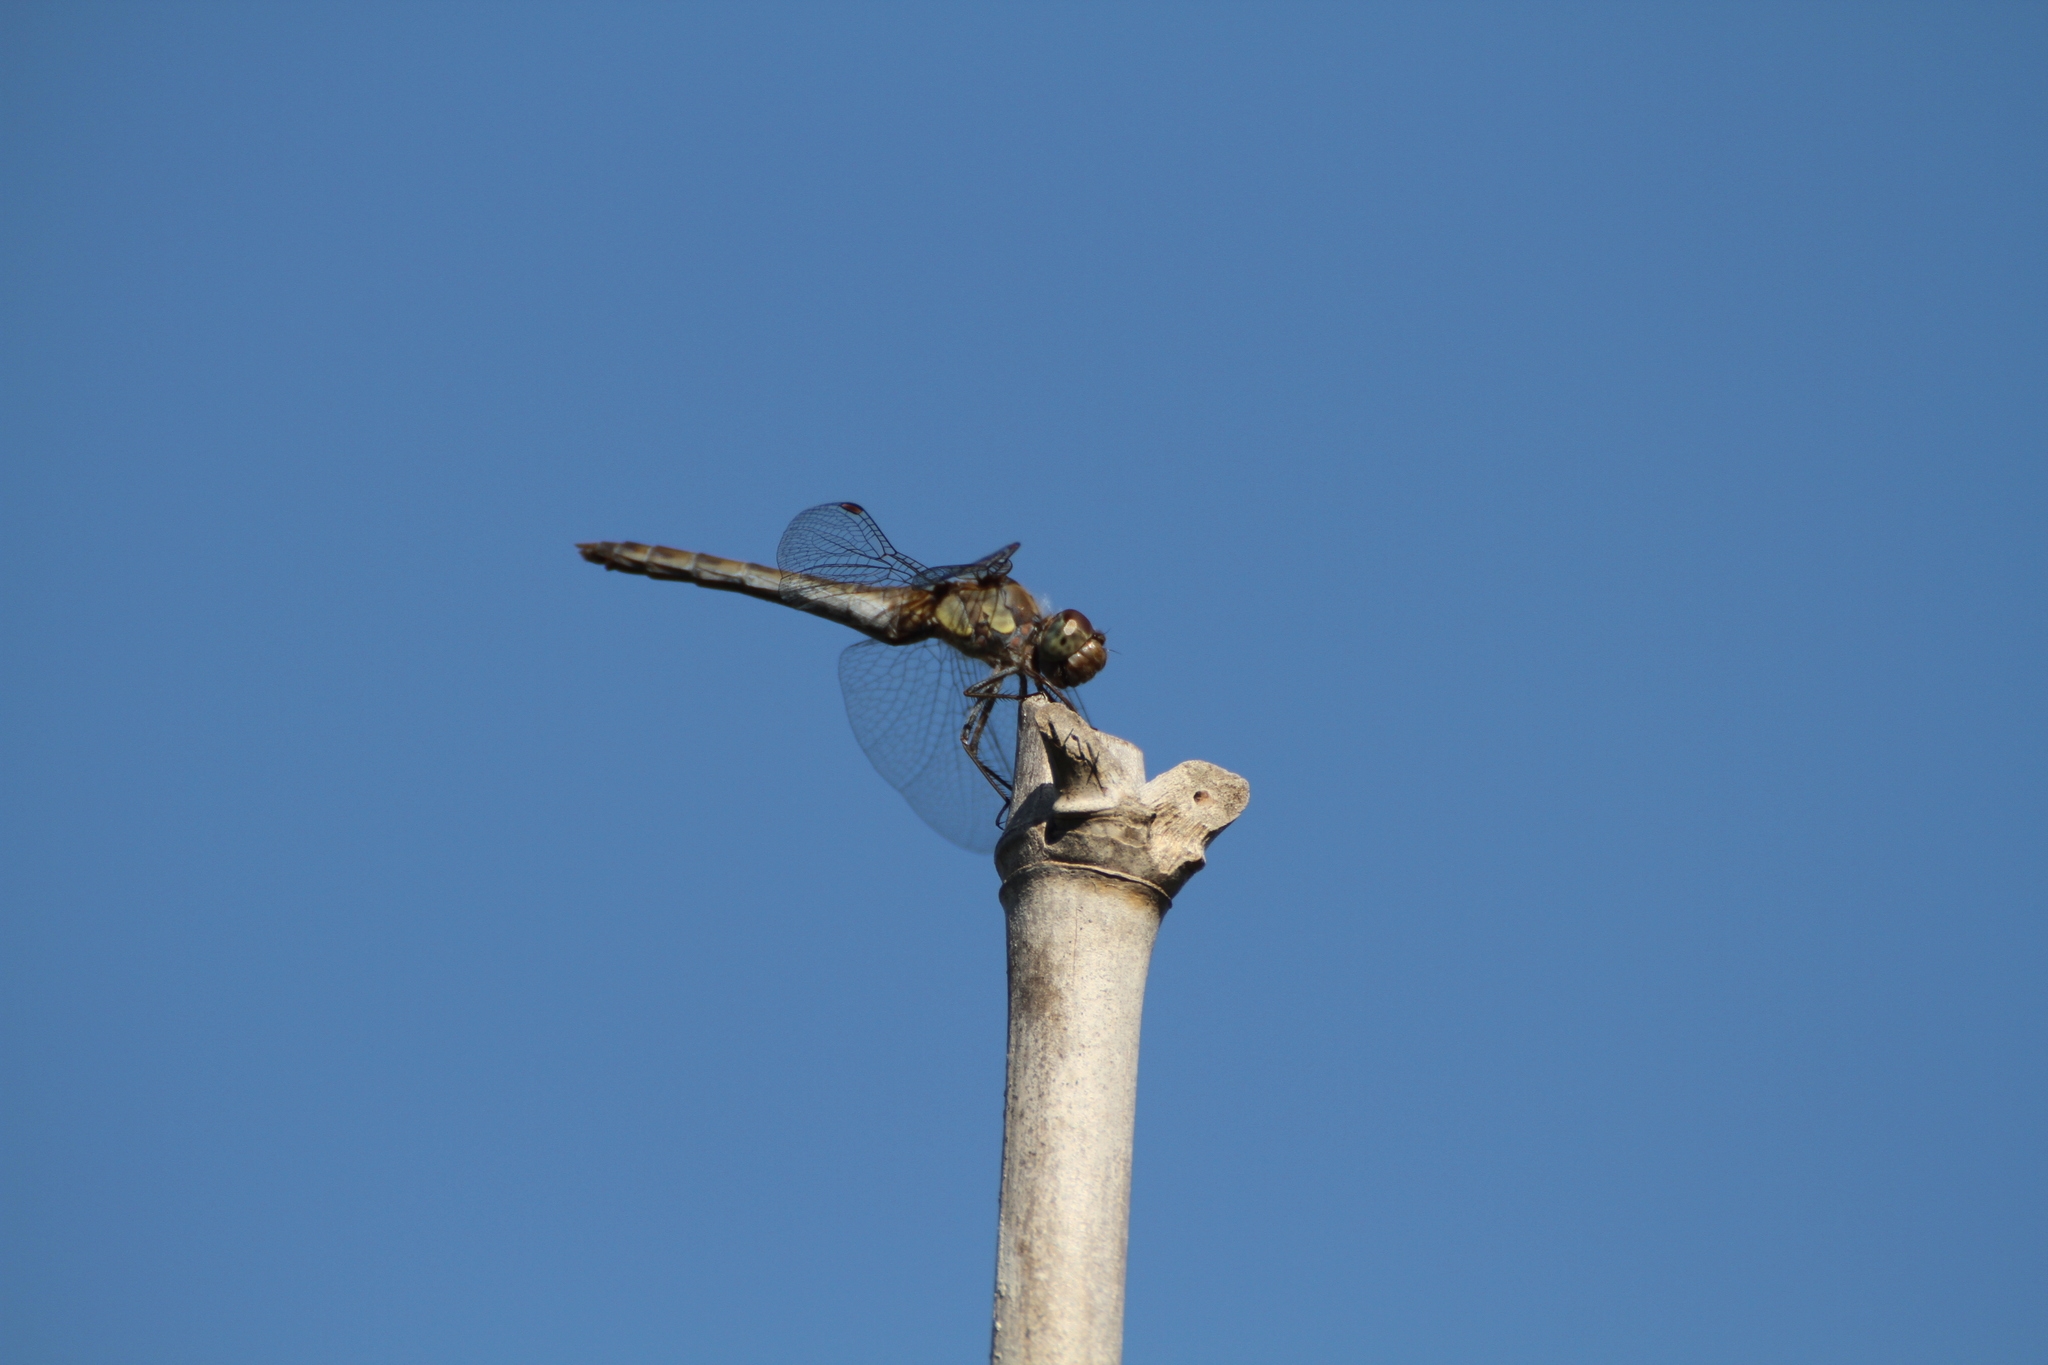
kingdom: Animalia
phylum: Arthropoda
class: Insecta
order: Odonata
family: Libellulidae
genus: Sympetrum
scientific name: Sympetrum striolatum
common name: Common darter
